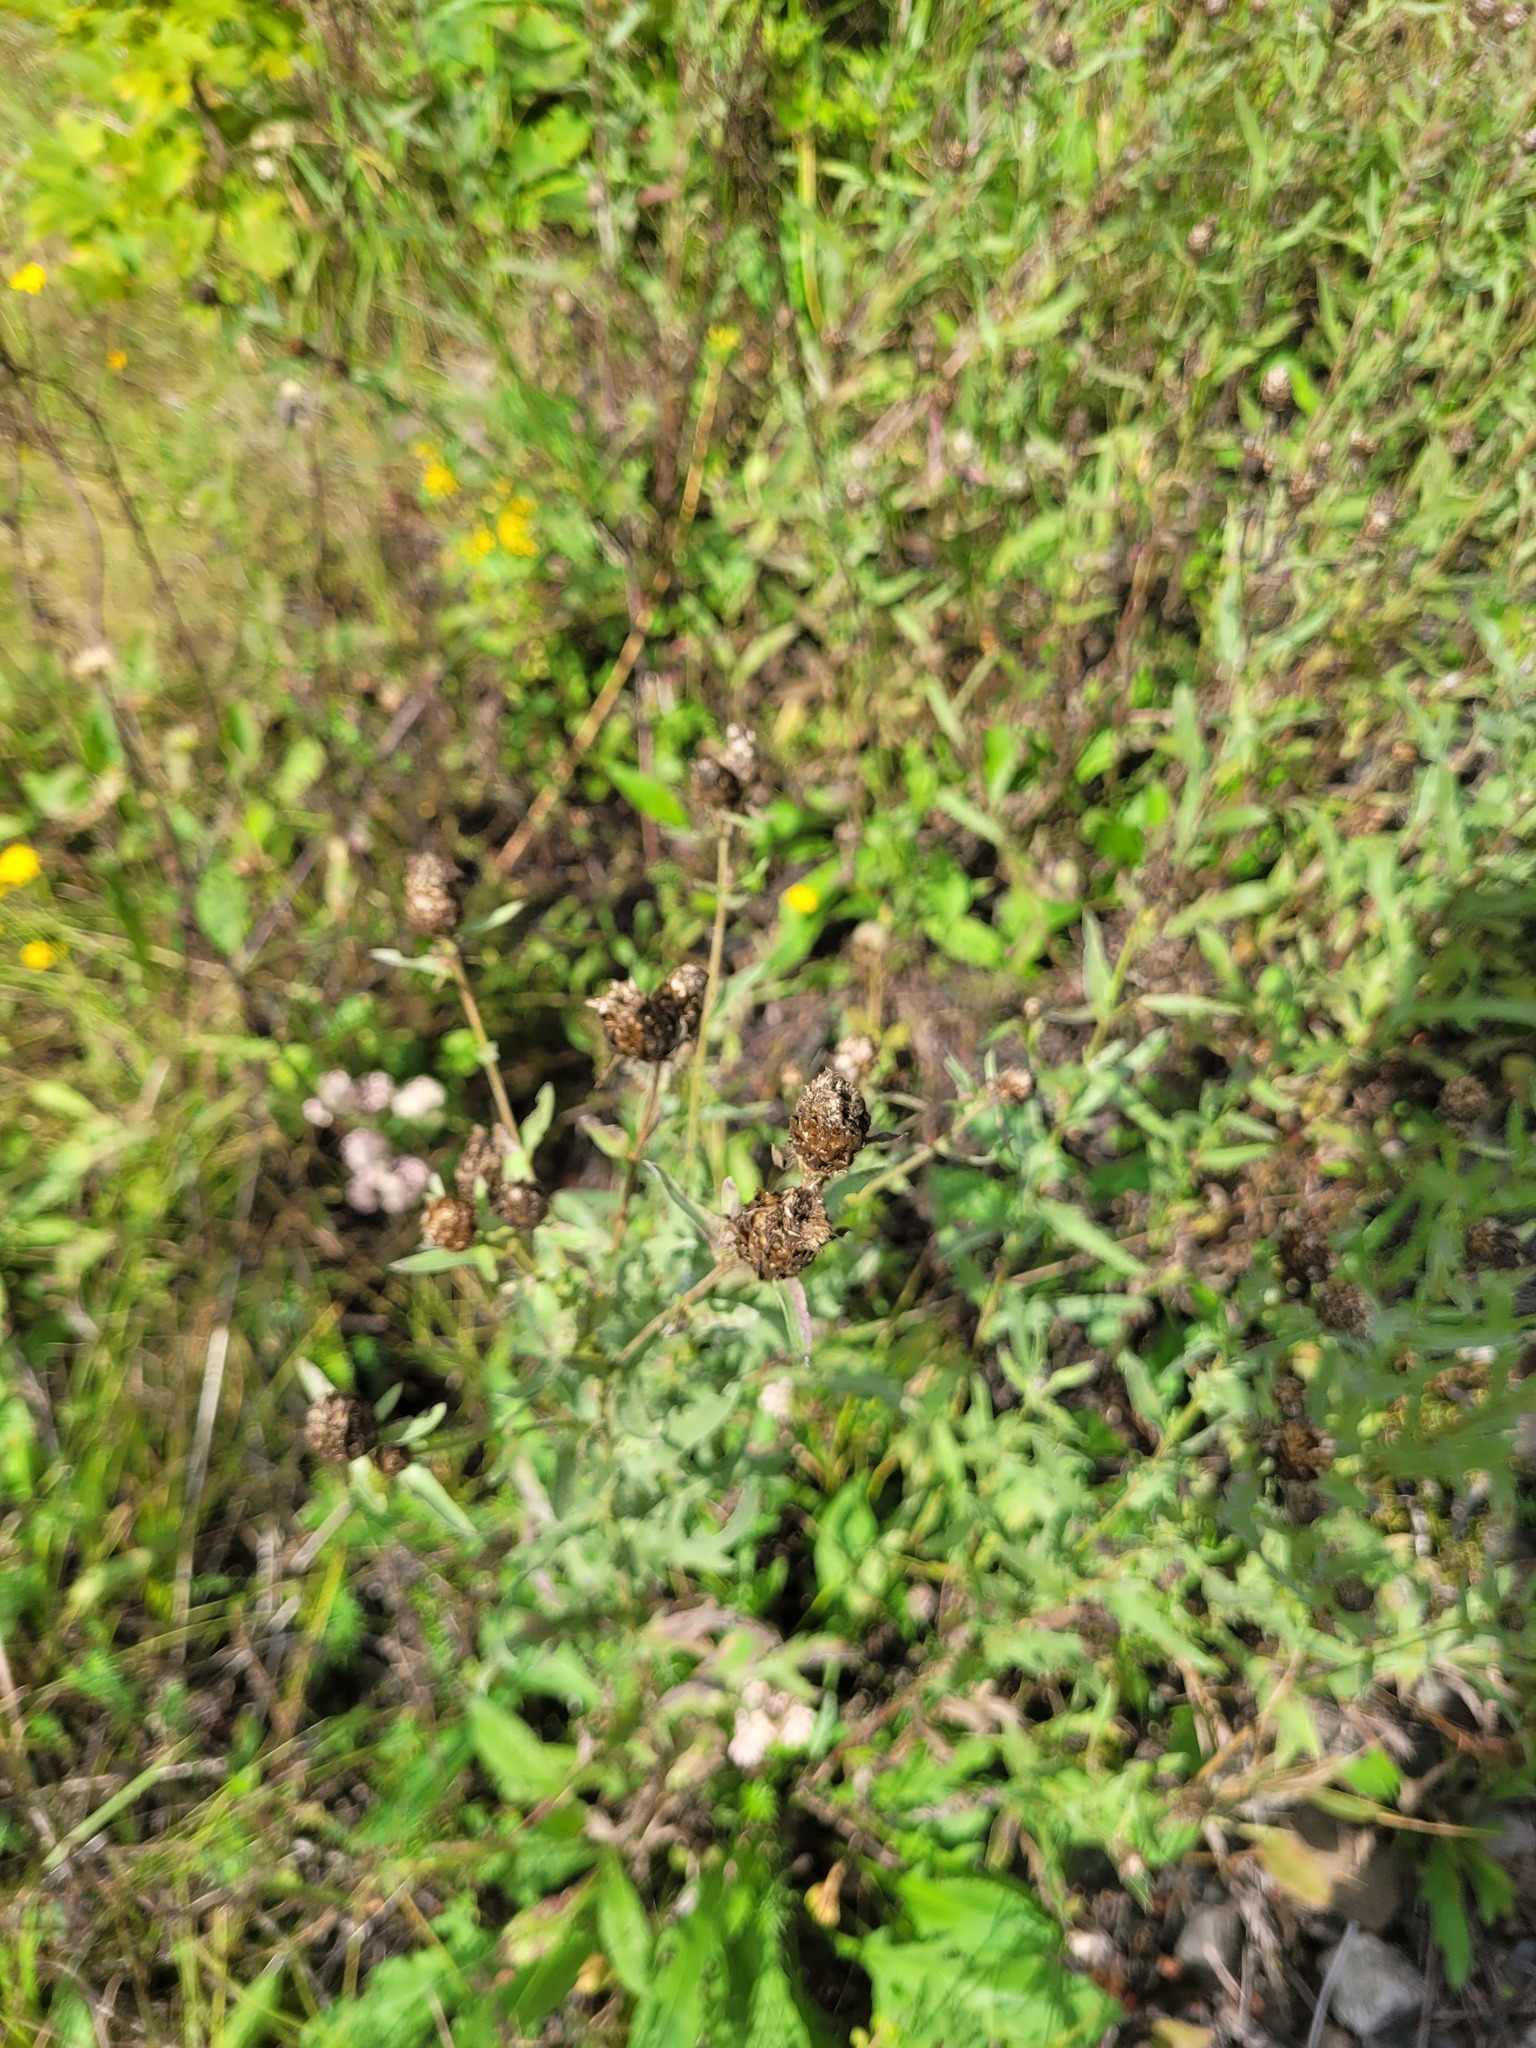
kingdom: Plantae
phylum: Tracheophyta
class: Magnoliopsida
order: Asterales
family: Asteraceae
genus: Centaurea
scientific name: Centaurea jacea
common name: Brown knapweed
